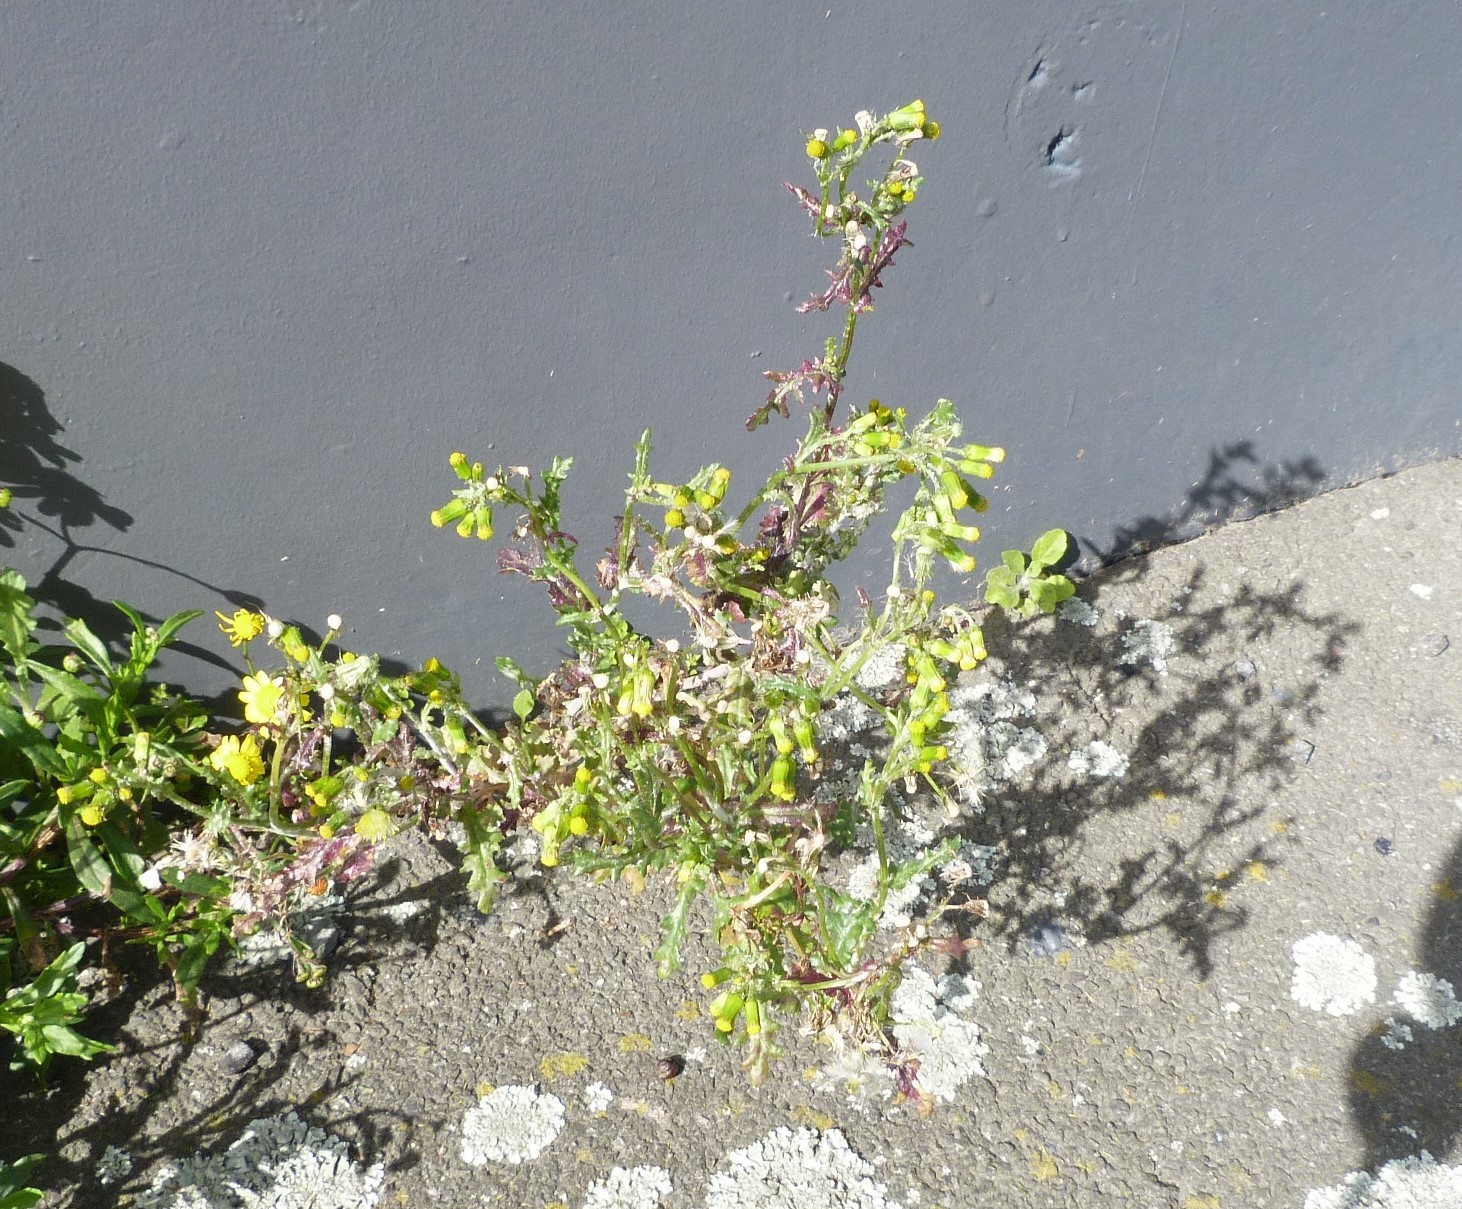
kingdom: Plantae
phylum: Tracheophyta
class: Magnoliopsida
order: Asterales
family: Asteraceae
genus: Senecio
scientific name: Senecio vulgaris
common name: Old-man-in-the-spring
